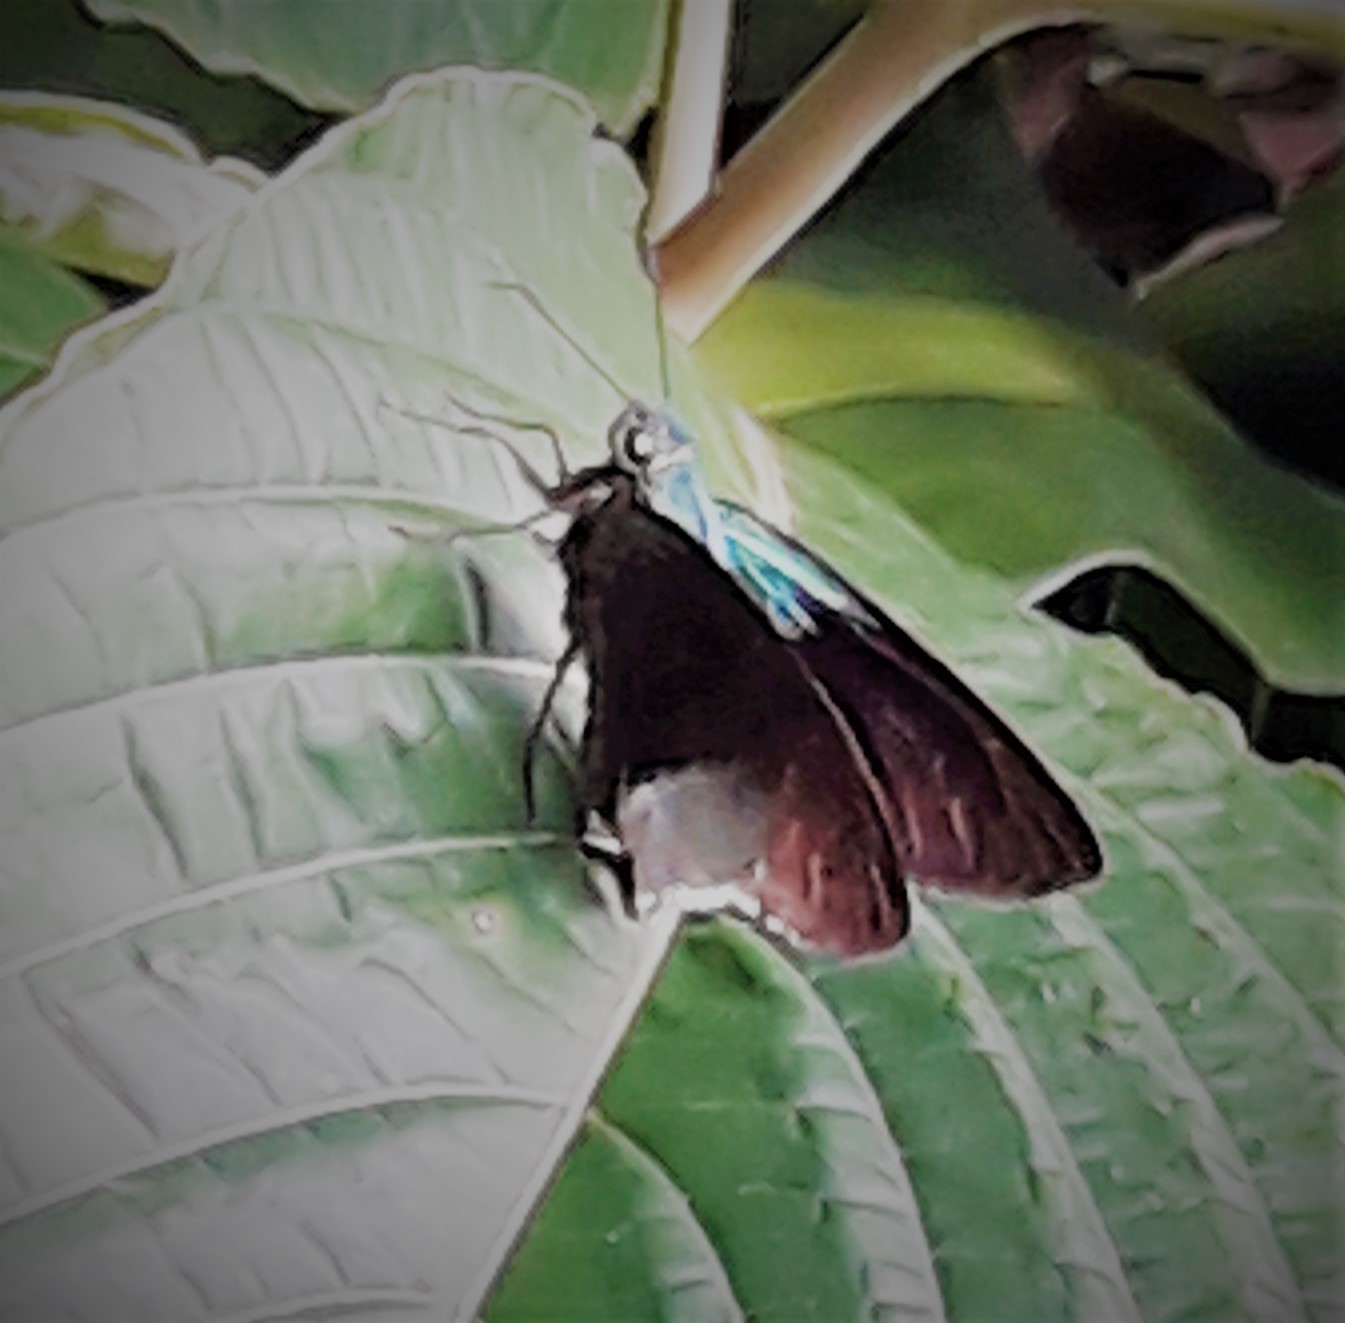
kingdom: Animalia
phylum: Arthropoda
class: Insecta
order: Lepidoptera
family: Hesperiidae
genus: Astraptes
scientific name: Astraptes alardus
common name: Frosted flasher
